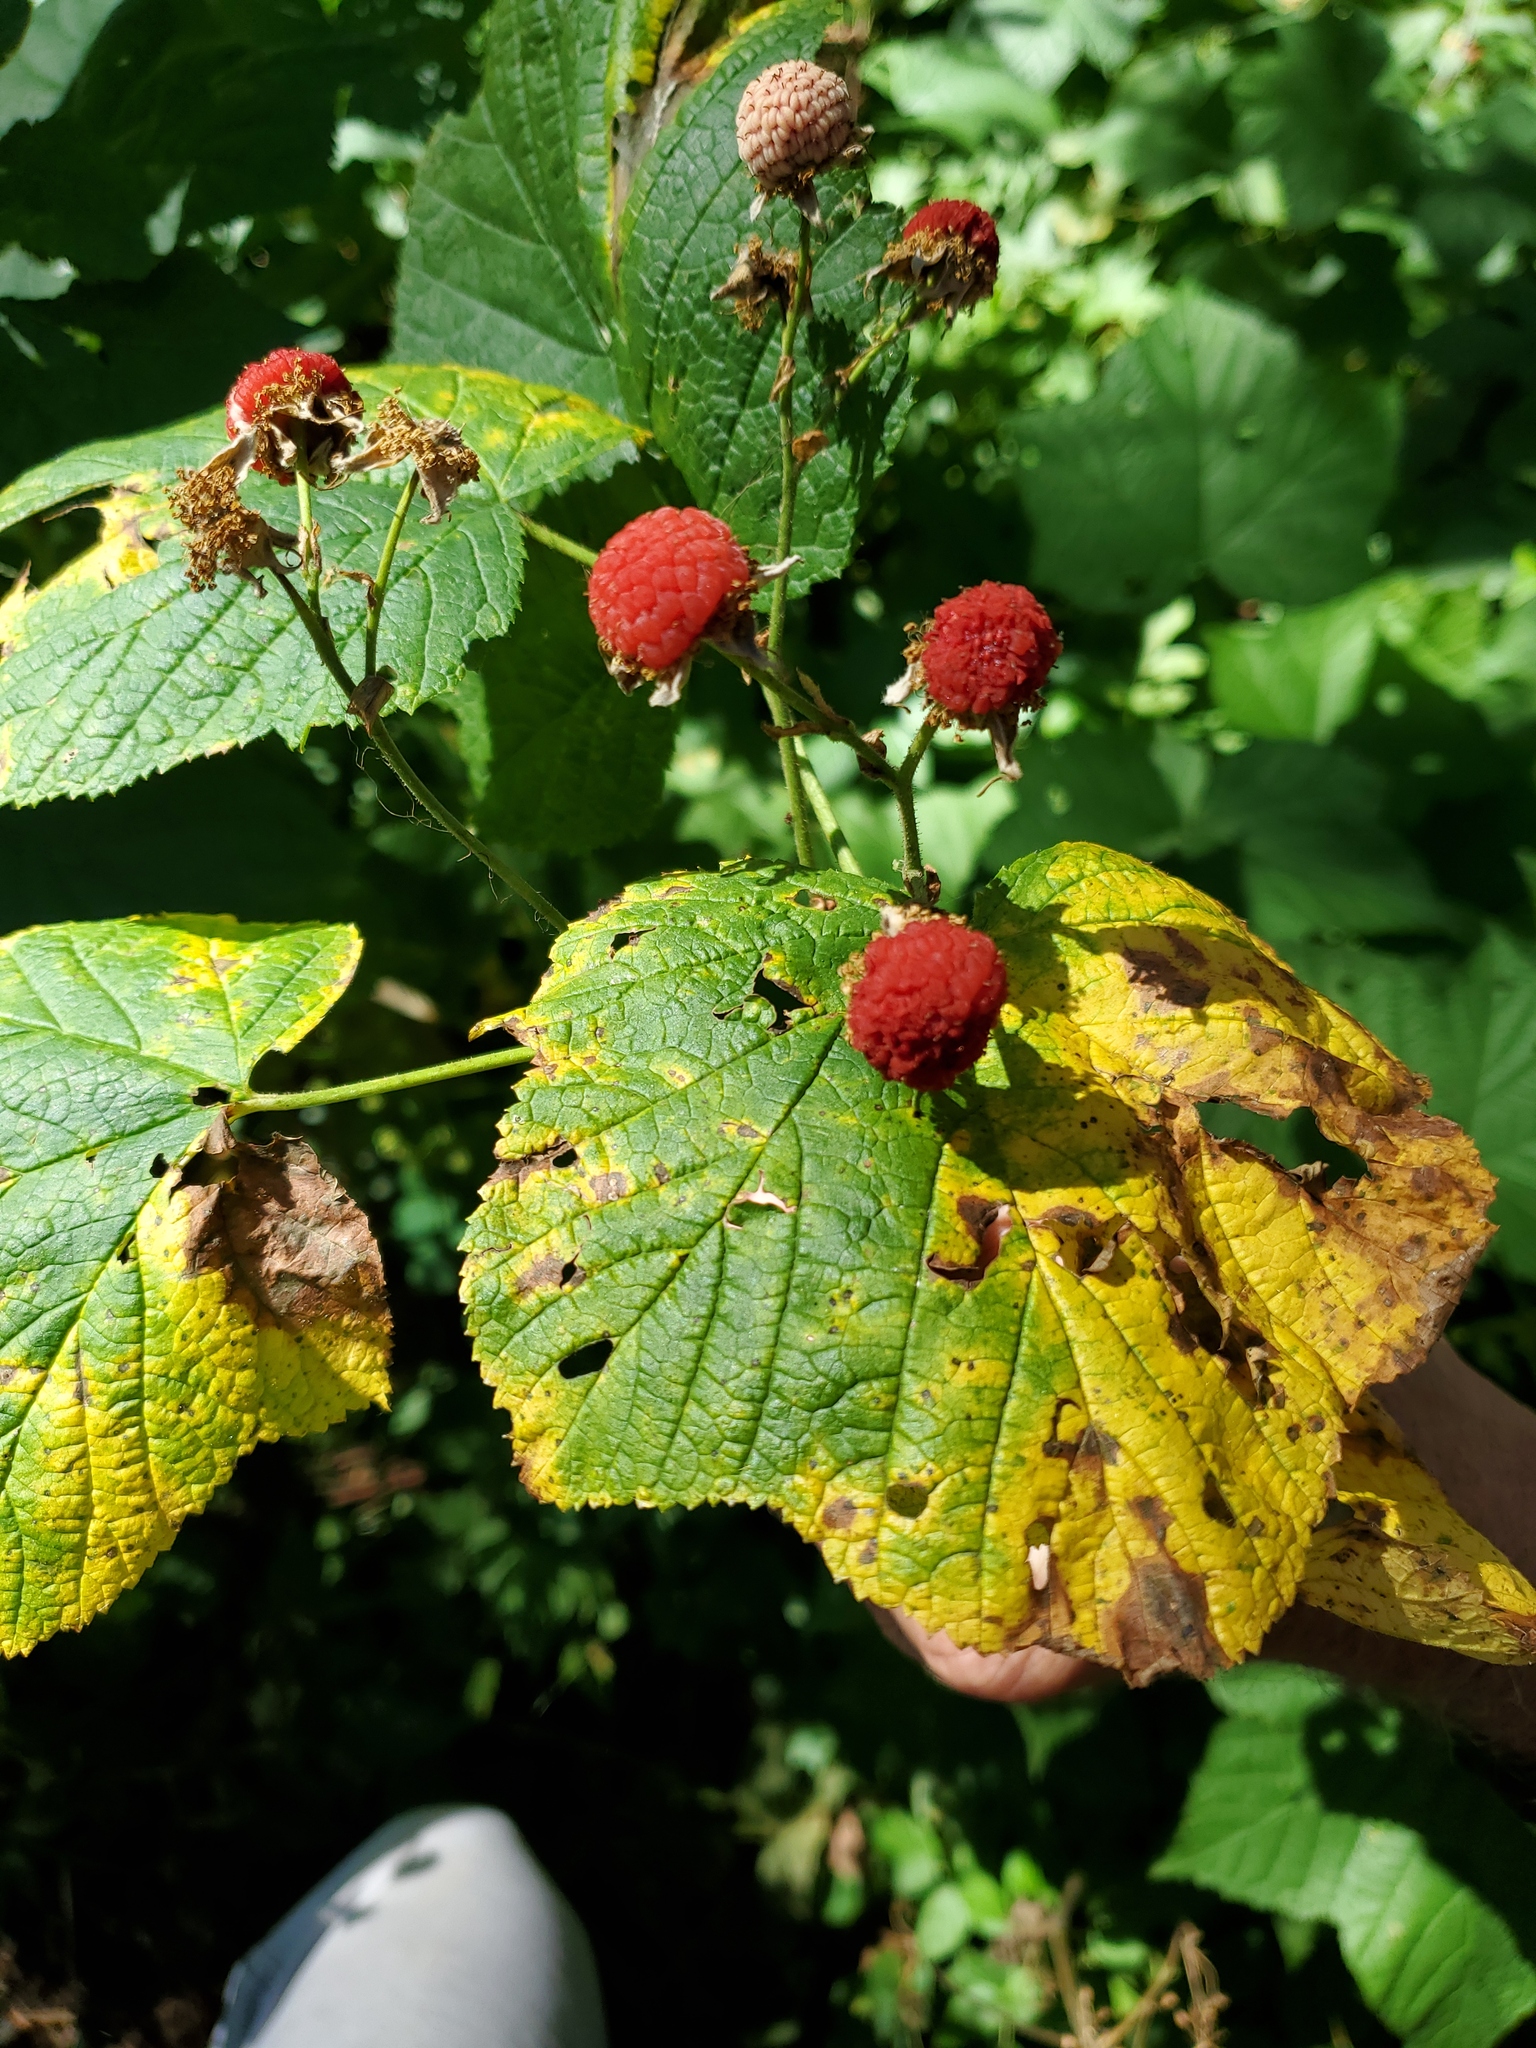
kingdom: Plantae
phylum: Tracheophyta
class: Magnoliopsida
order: Rosales
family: Rosaceae
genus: Rubus
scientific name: Rubus parviflorus
